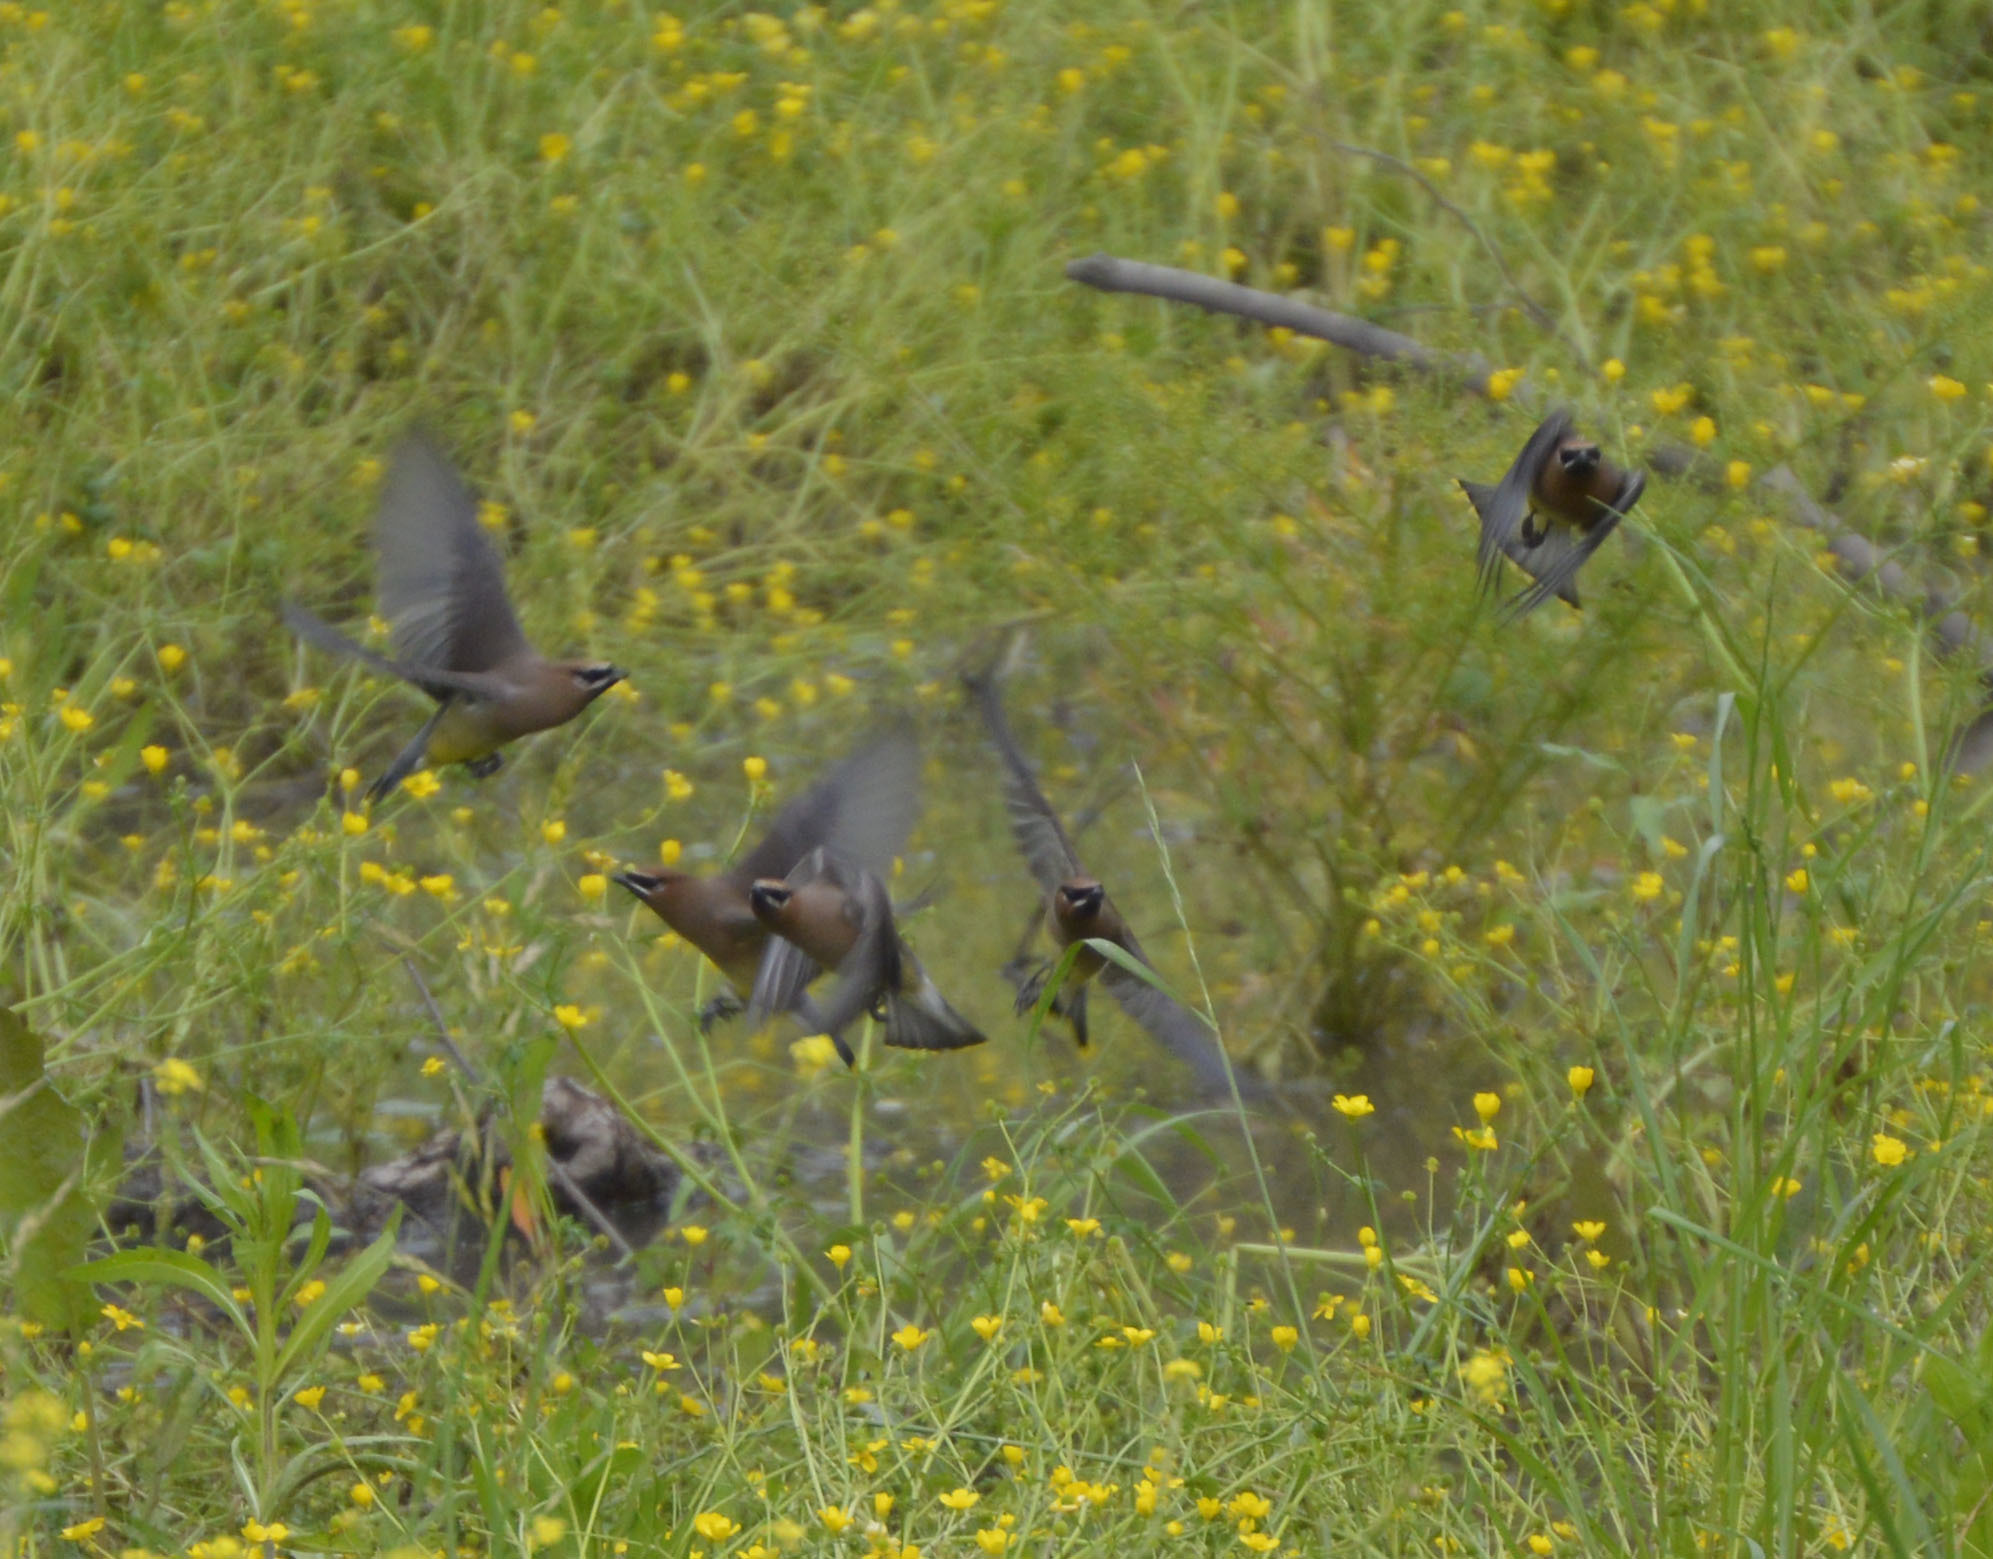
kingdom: Animalia
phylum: Chordata
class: Aves
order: Passeriformes
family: Bombycillidae
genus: Bombycilla
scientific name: Bombycilla cedrorum
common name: Cedar waxwing
